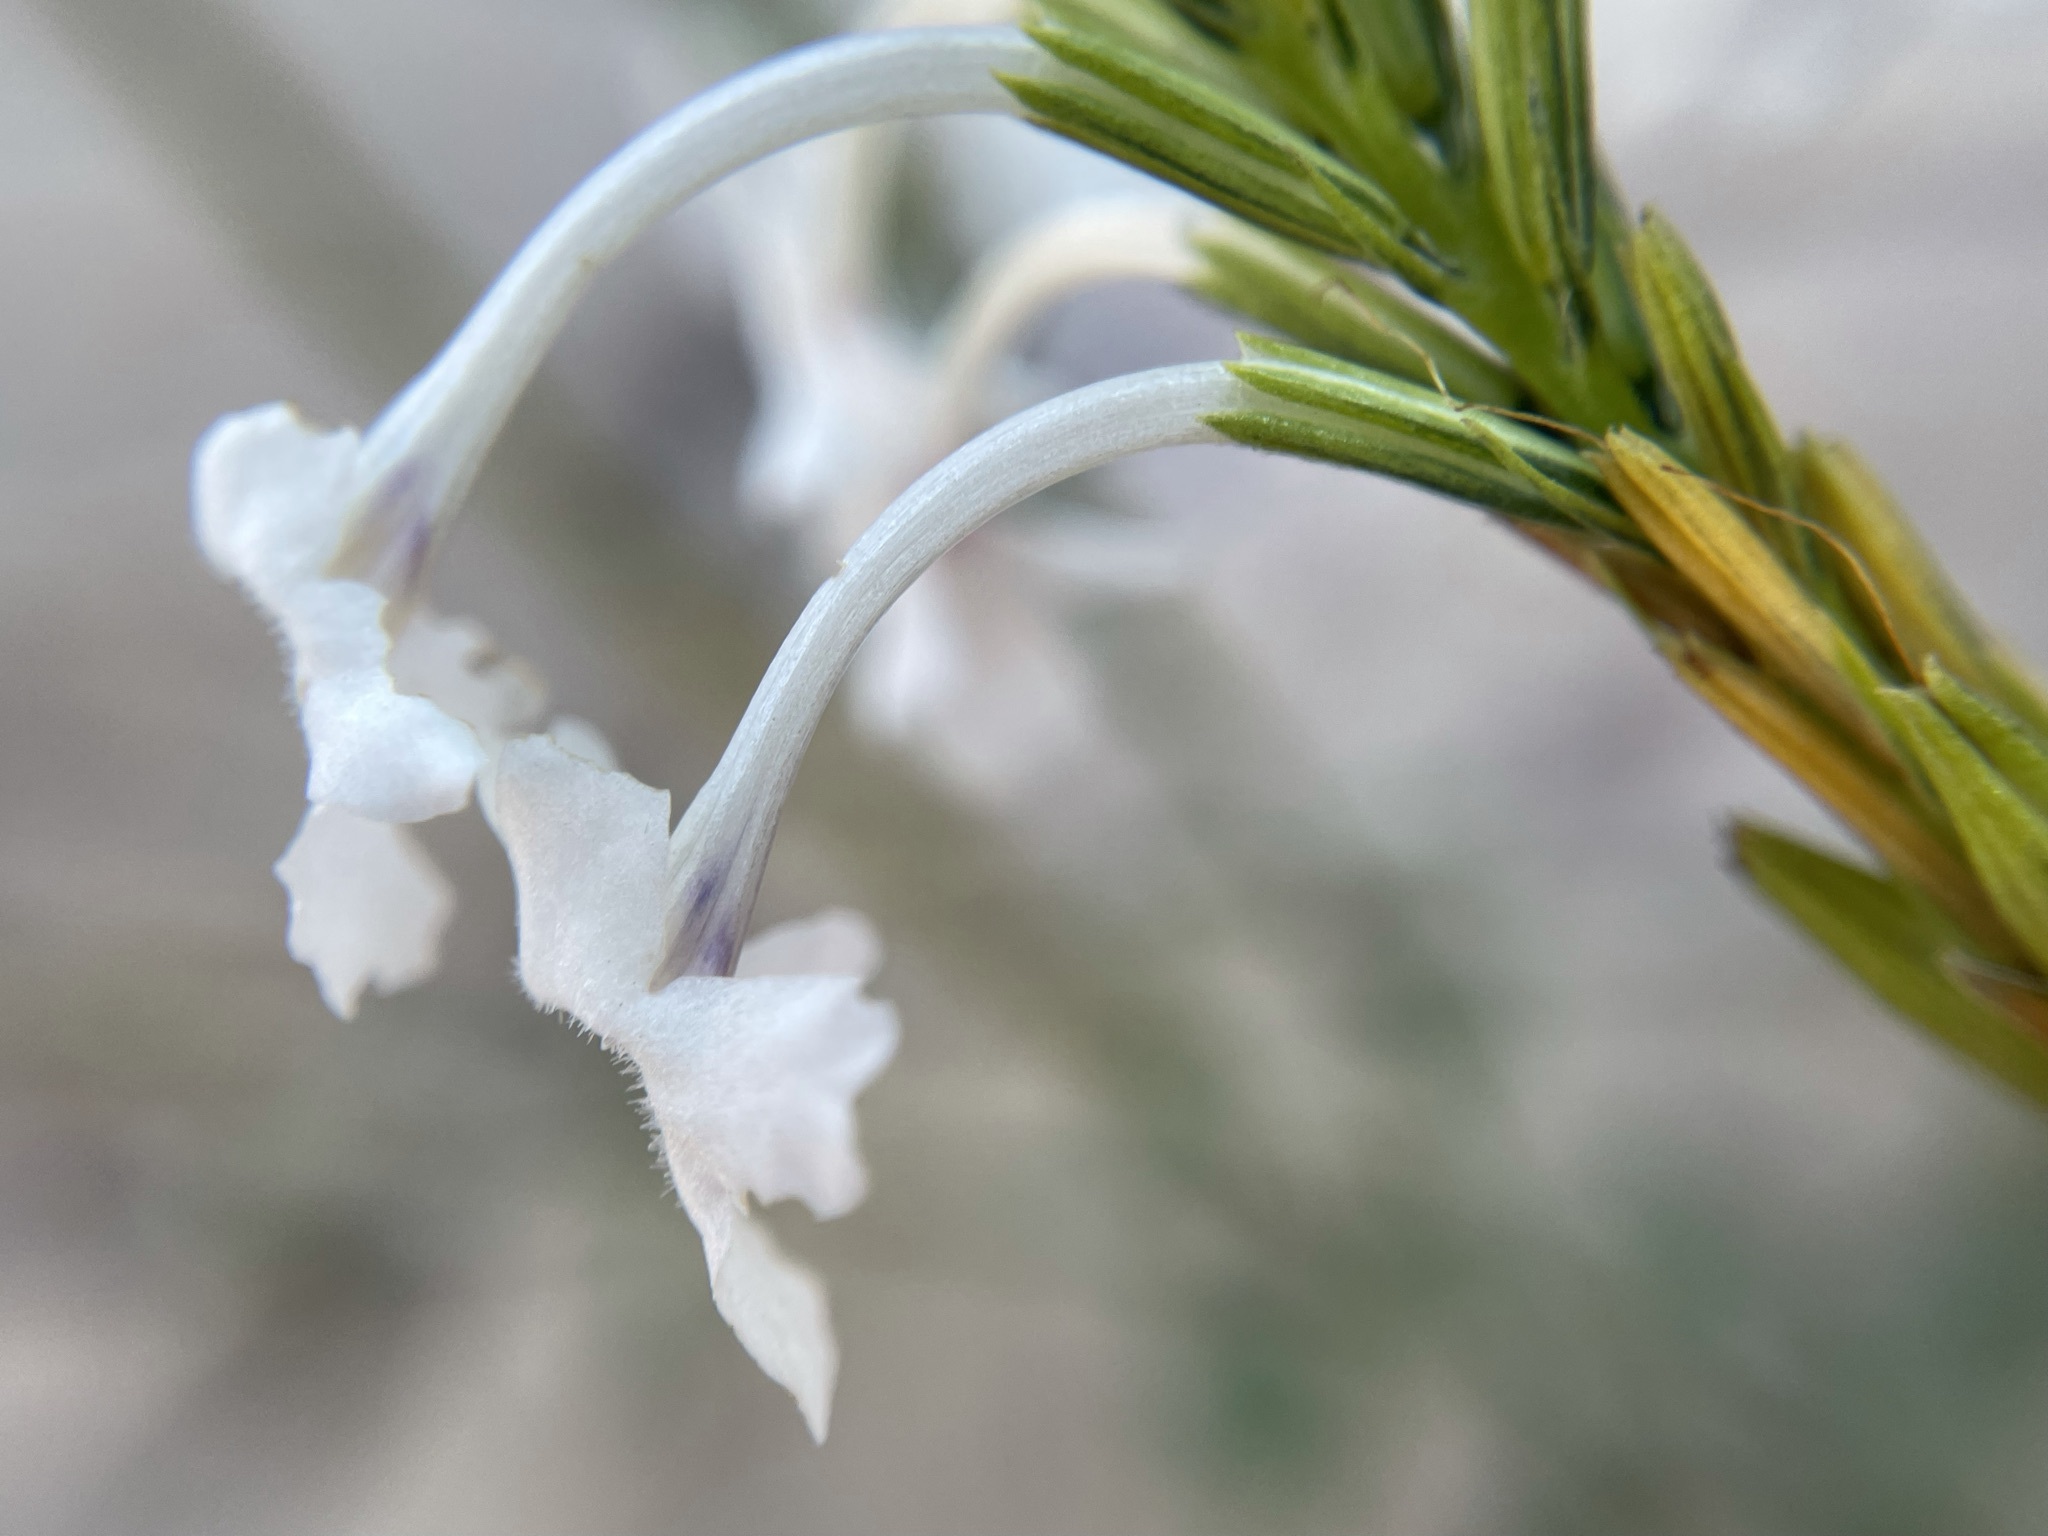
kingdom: Plantae
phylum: Tracheophyta
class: Magnoliopsida
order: Lamiales
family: Verbenaceae
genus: Chascanum
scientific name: Chascanum garipense
